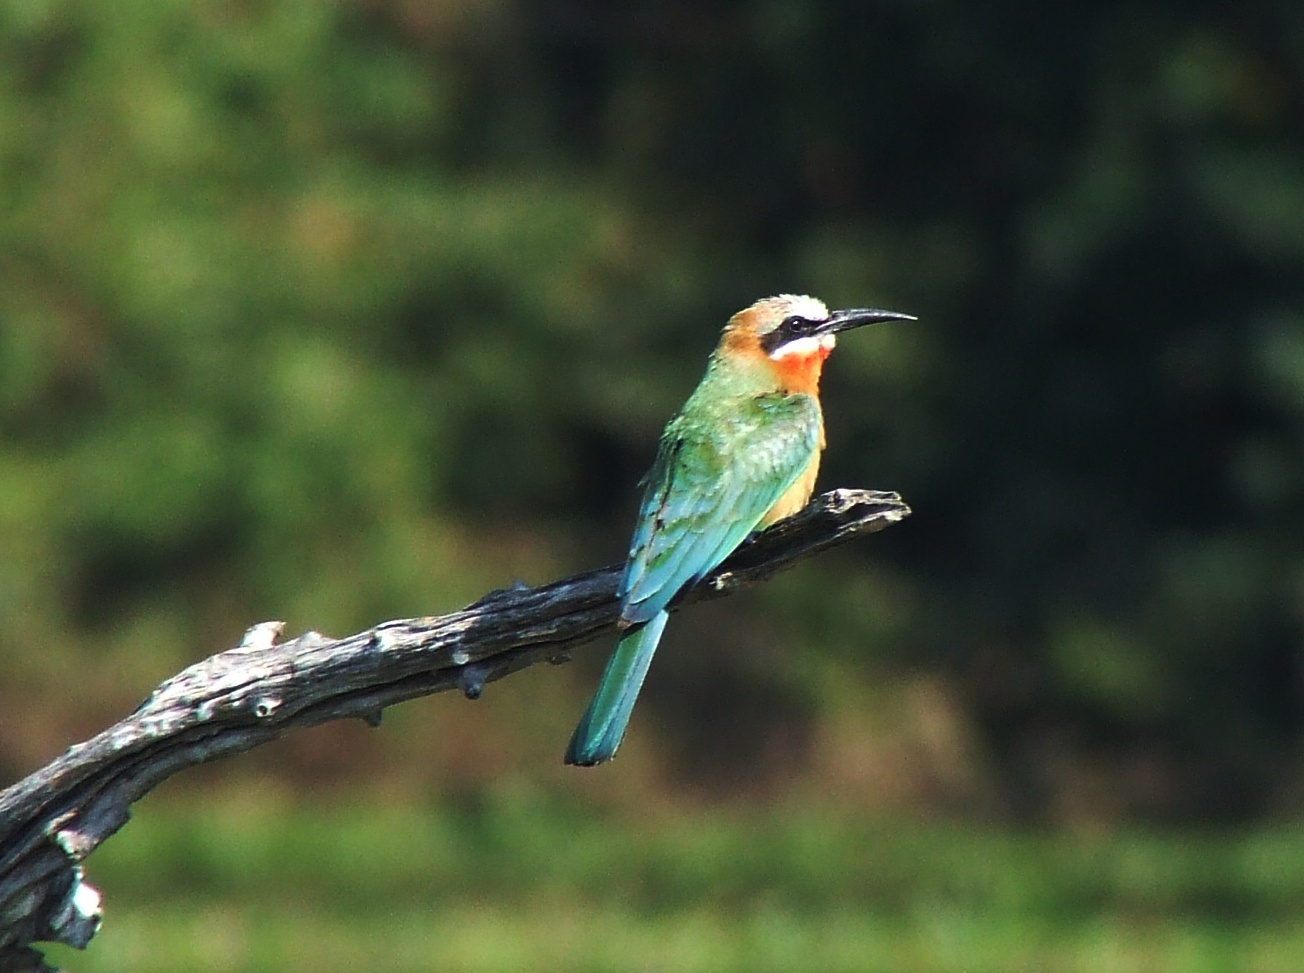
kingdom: Animalia
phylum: Chordata
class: Aves
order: Coraciiformes
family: Meropidae
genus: Merops
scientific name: Merops bullockoides
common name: White-fronted bee-eater
